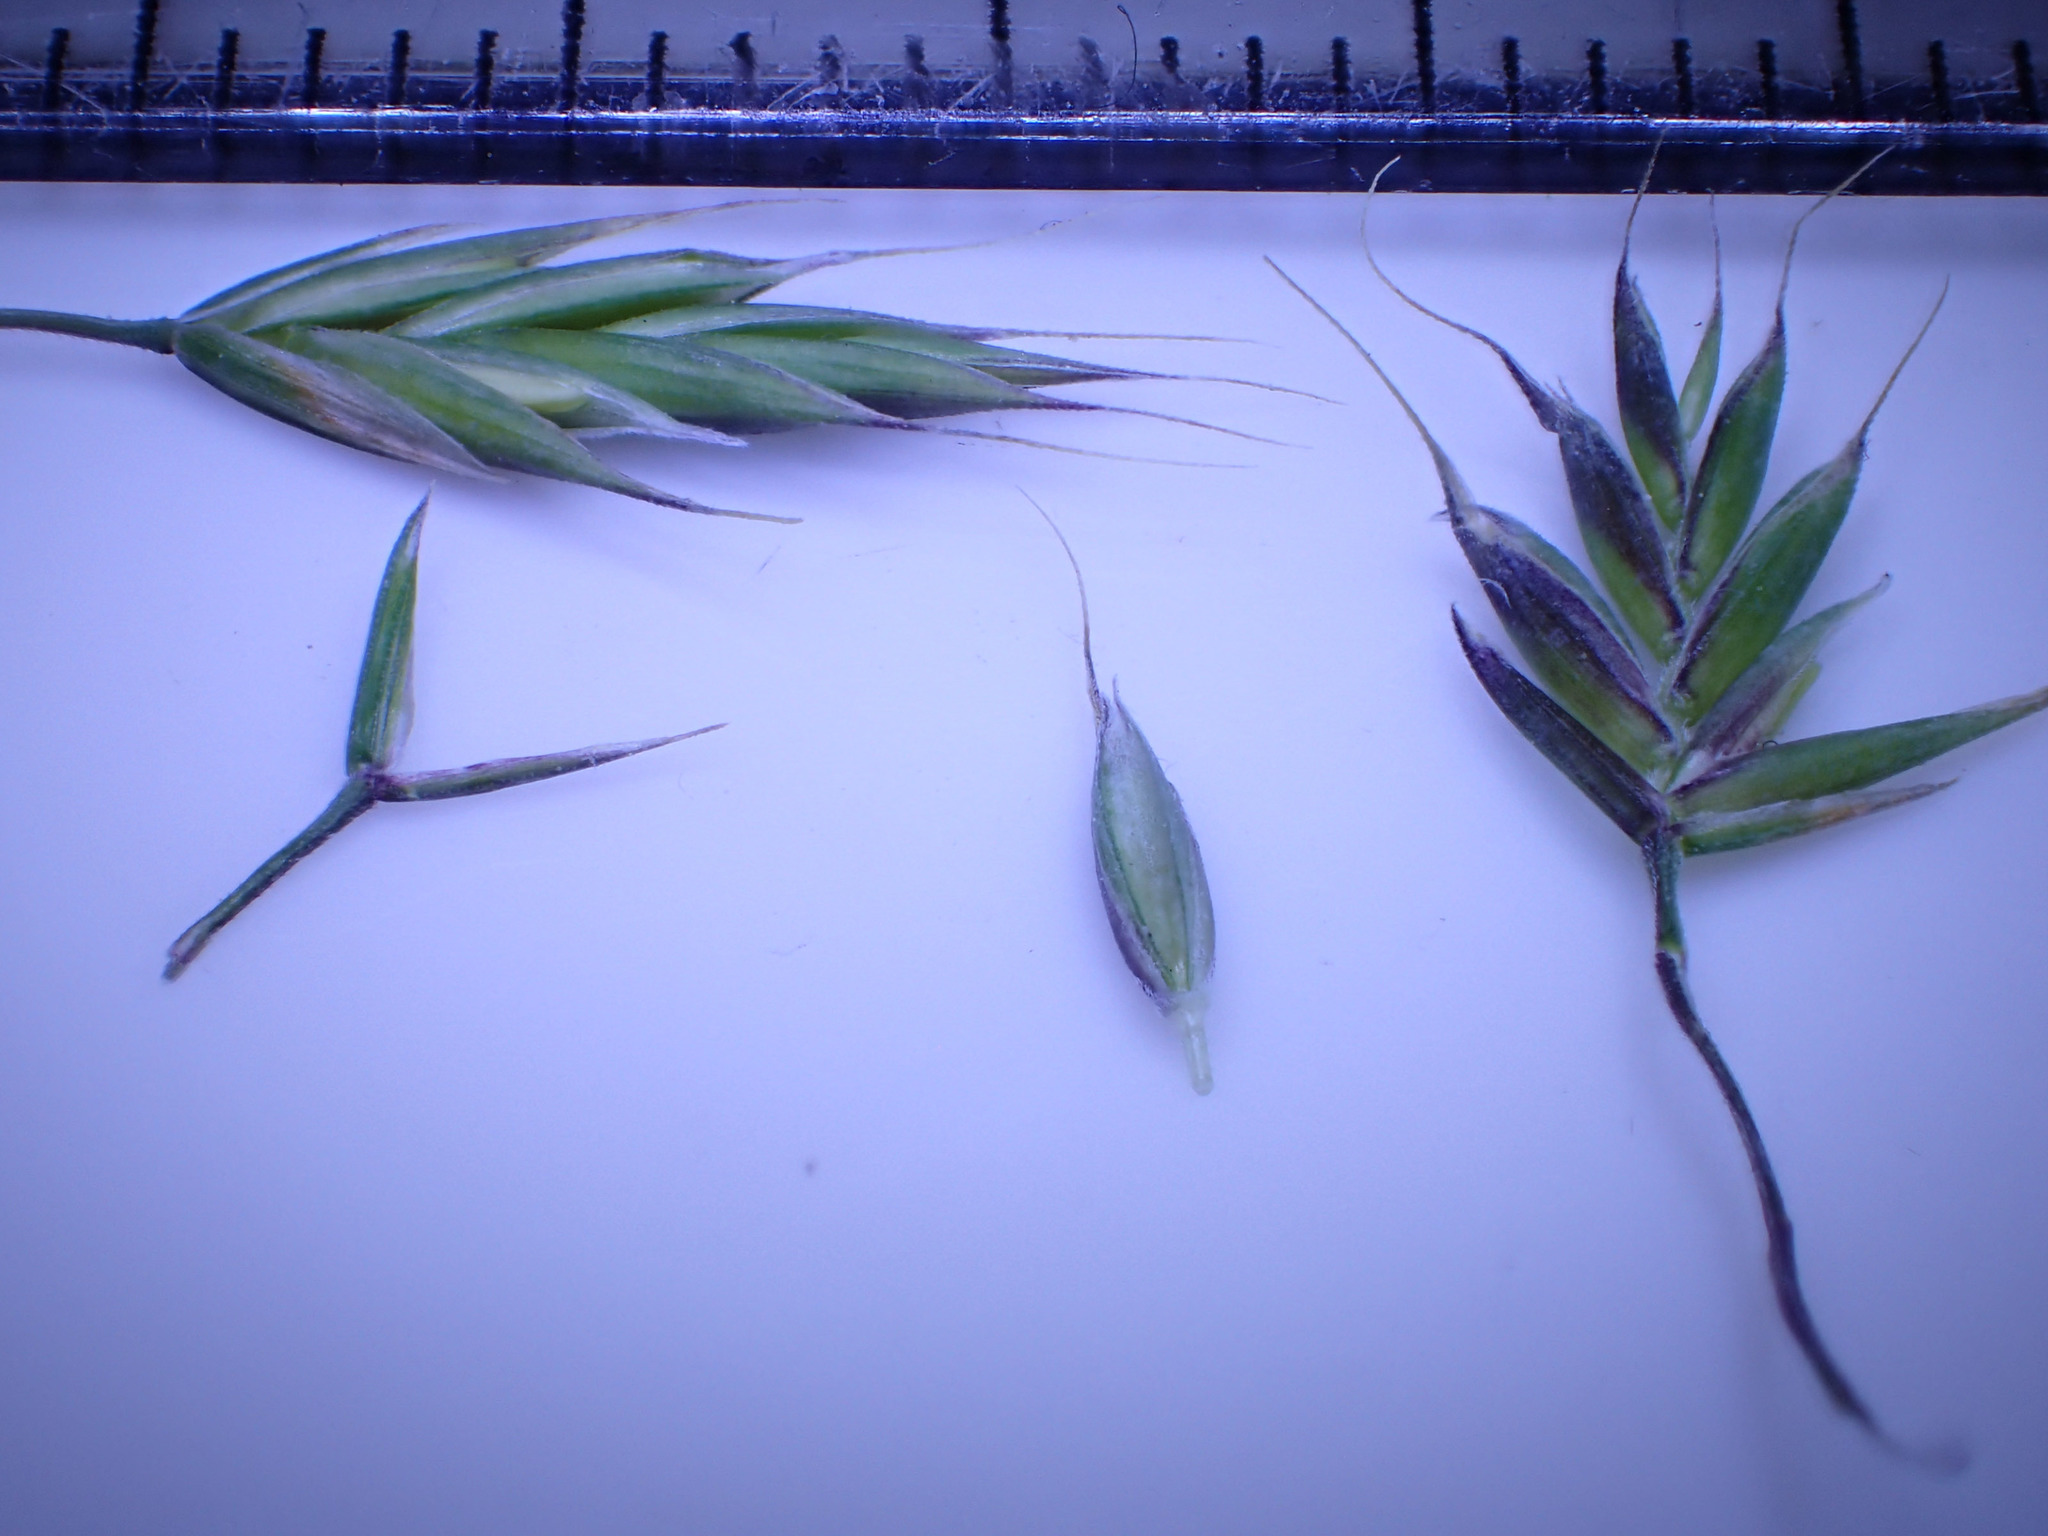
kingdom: Plantae
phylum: Tracheophyta
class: Liliopsida
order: Poales
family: Poaceae
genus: Lolium
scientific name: Lolium arundinaceum
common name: Reed fescue
